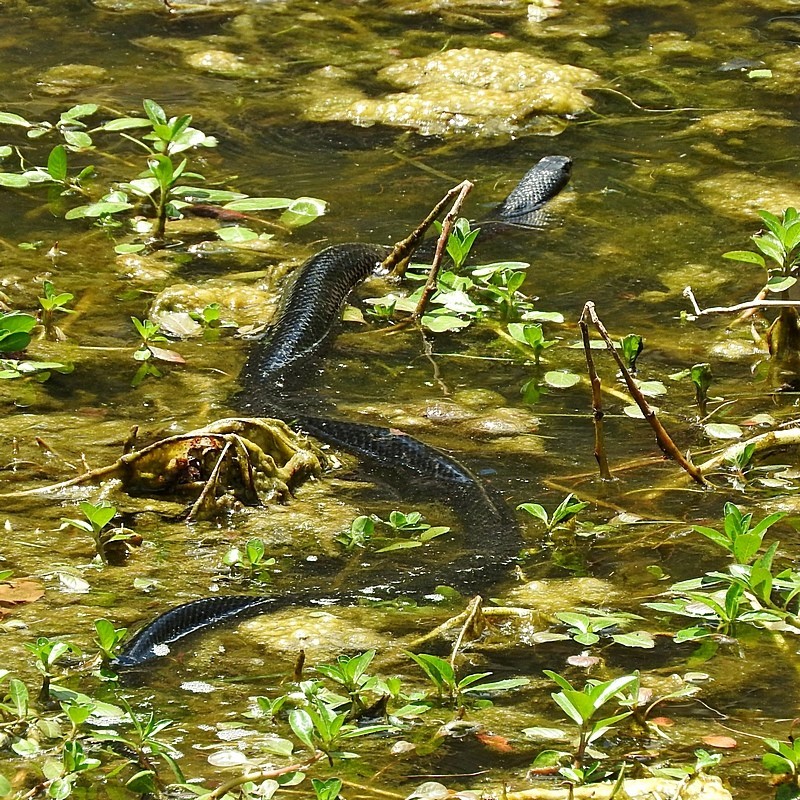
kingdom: Animalia
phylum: Chordata
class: Squamata
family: Elapidae
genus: Pseudechis
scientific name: Pseudechis porphyriacus
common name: Australian black snake
